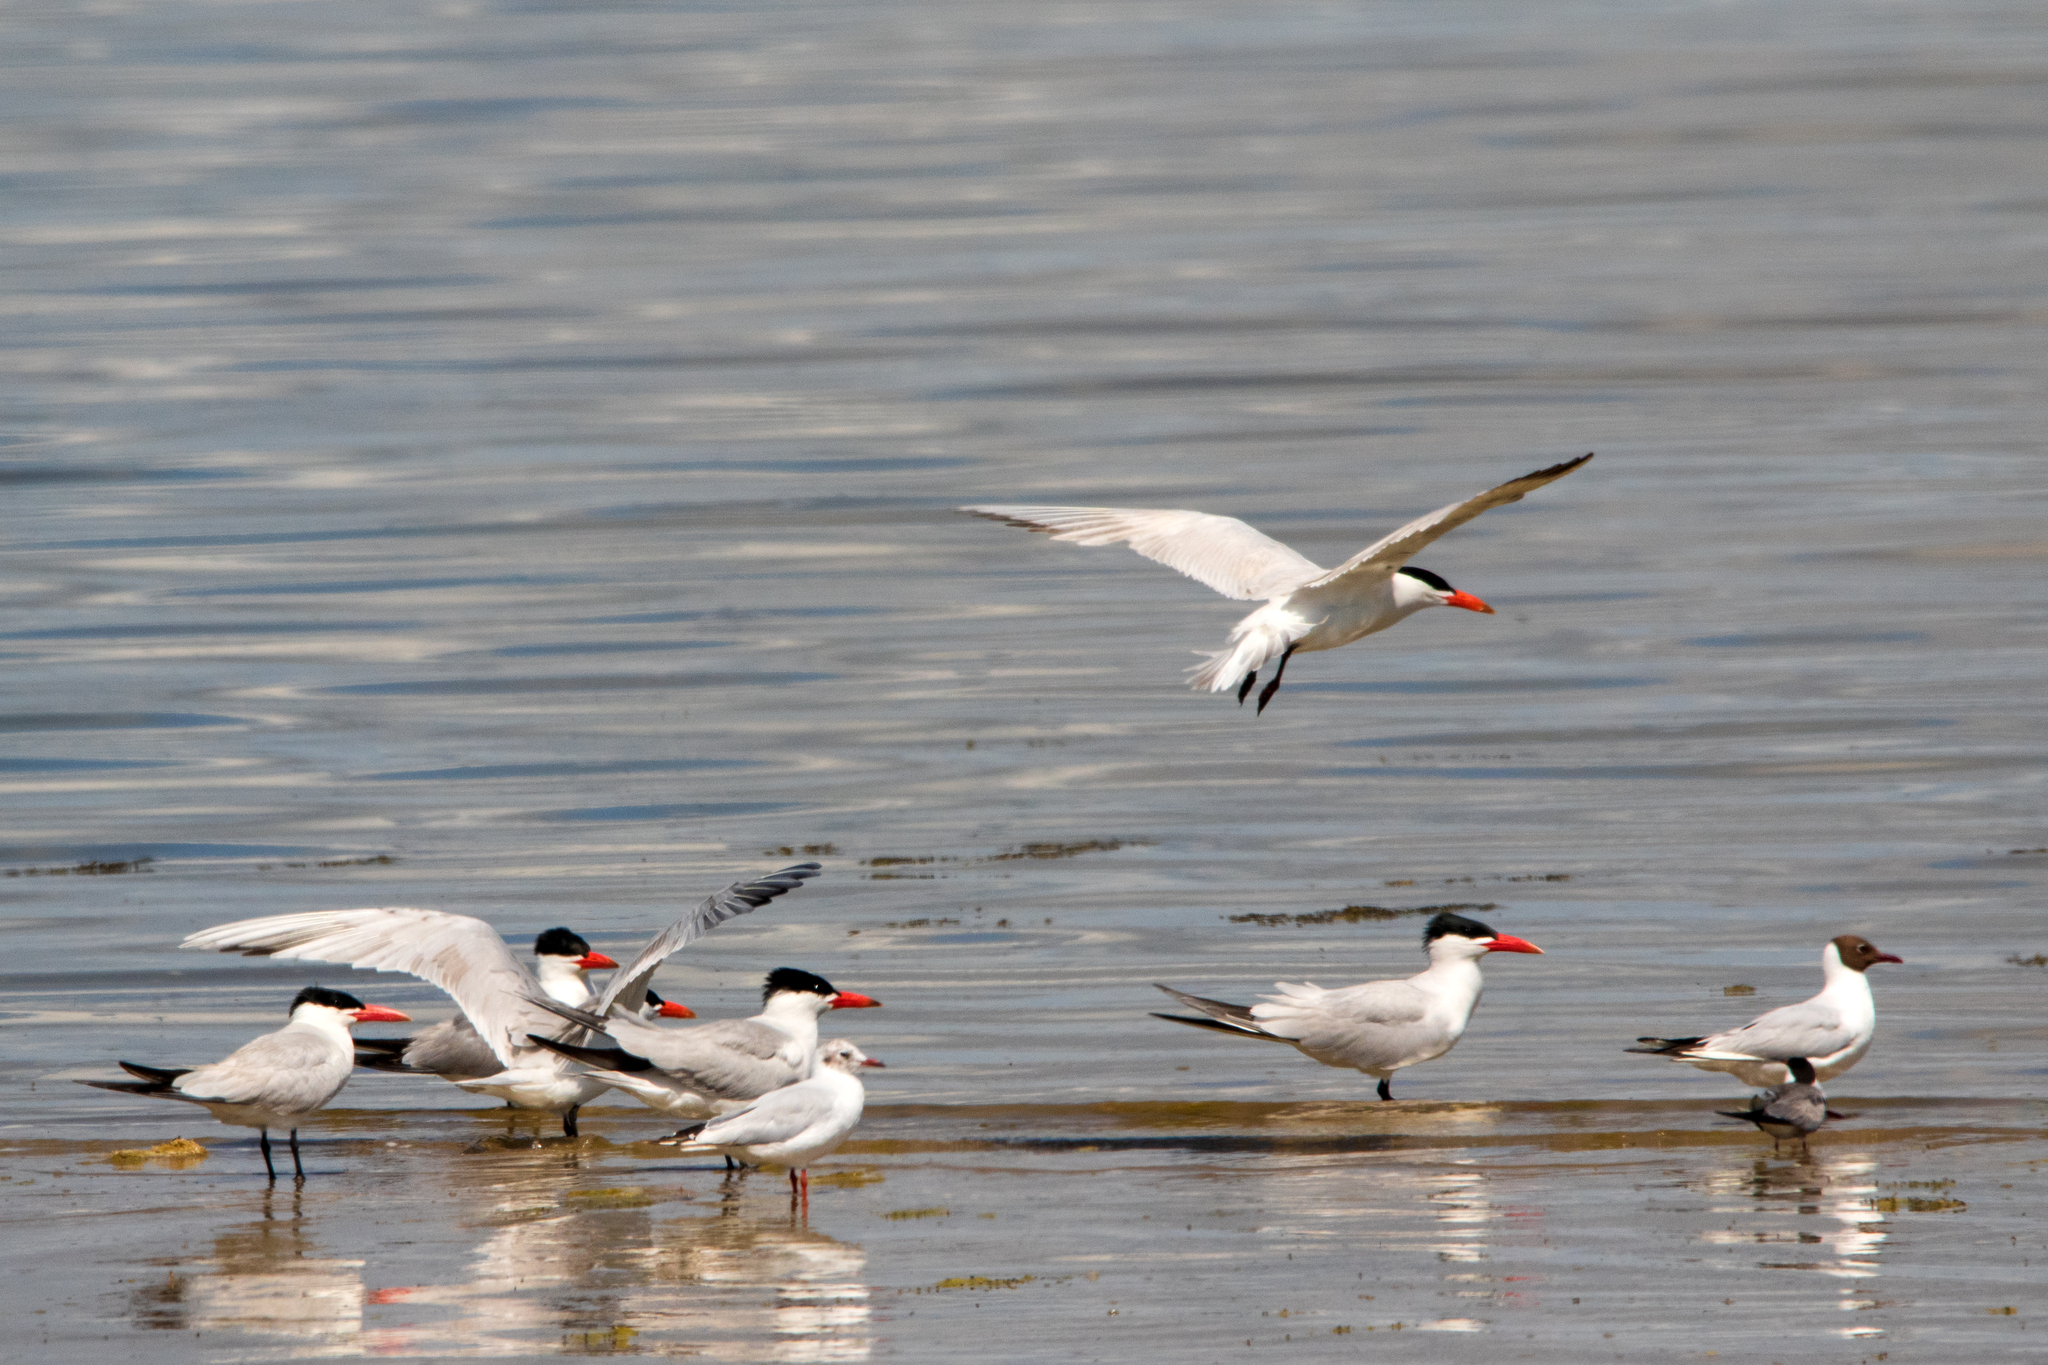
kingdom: Animalia
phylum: Chordata
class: Aves
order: Charadriiformes
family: Laridae
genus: Hydroprogne
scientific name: Hydroprogne caspia
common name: Caspian tern
